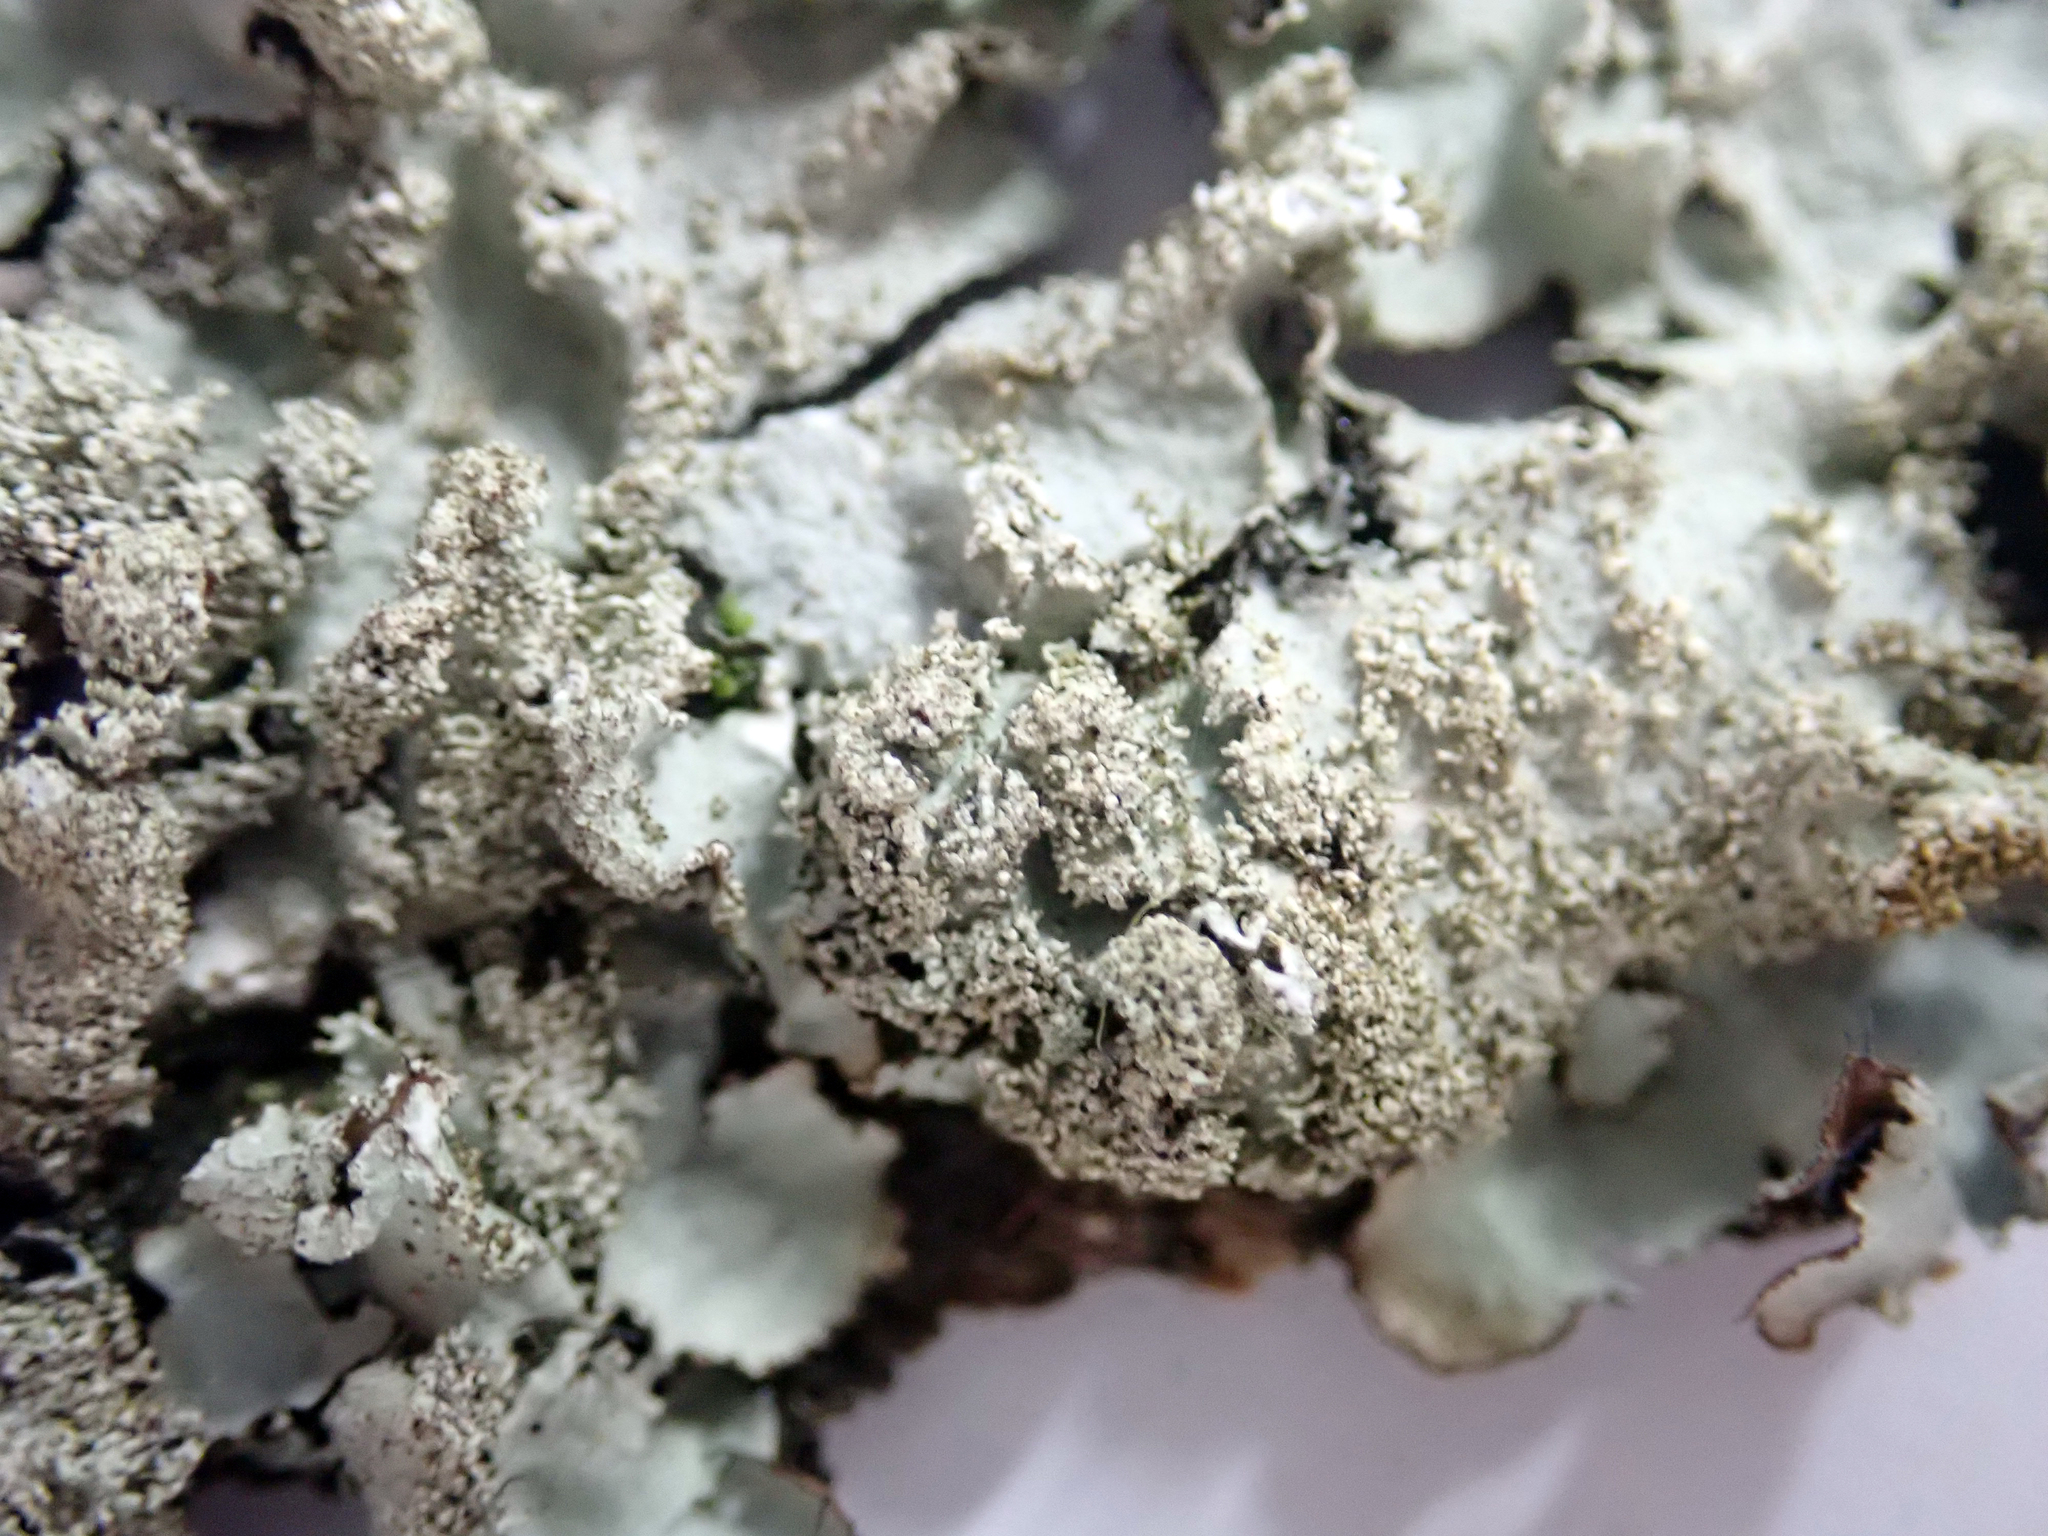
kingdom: Fungi
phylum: Ascomycota
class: Lecanoromycetes
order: Lecanorales
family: Parmeliaceae
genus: Parmotrema
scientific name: Parmotrema crinitum
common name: Salted ruffle lichen
